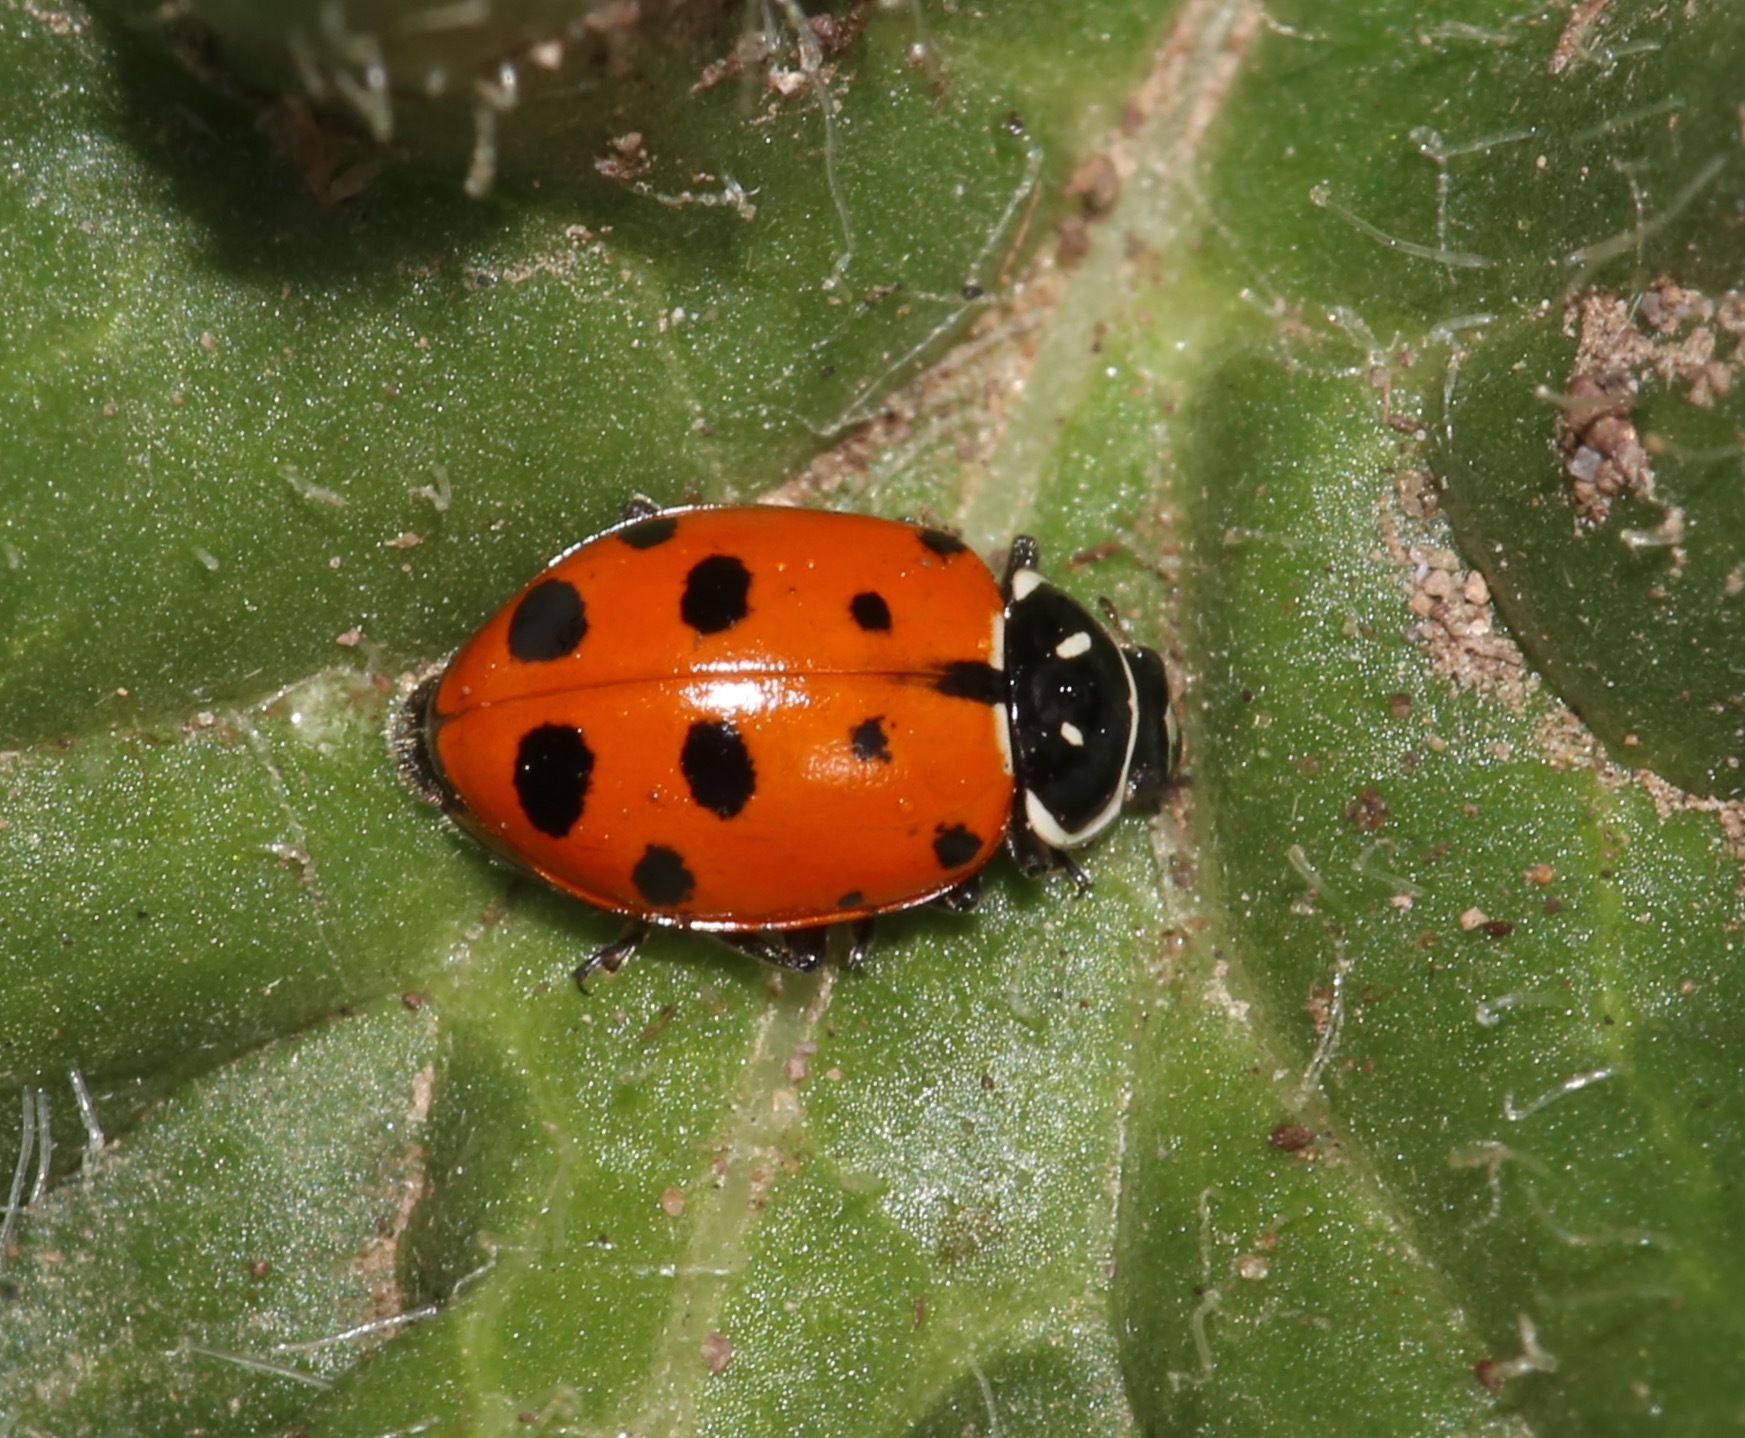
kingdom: Animalia
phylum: Arthropoda
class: Insecta
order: Coleoptera
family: Coccinellidae
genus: Hippodamia
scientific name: Hippodamia convergens
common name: Convergent lady beetle
